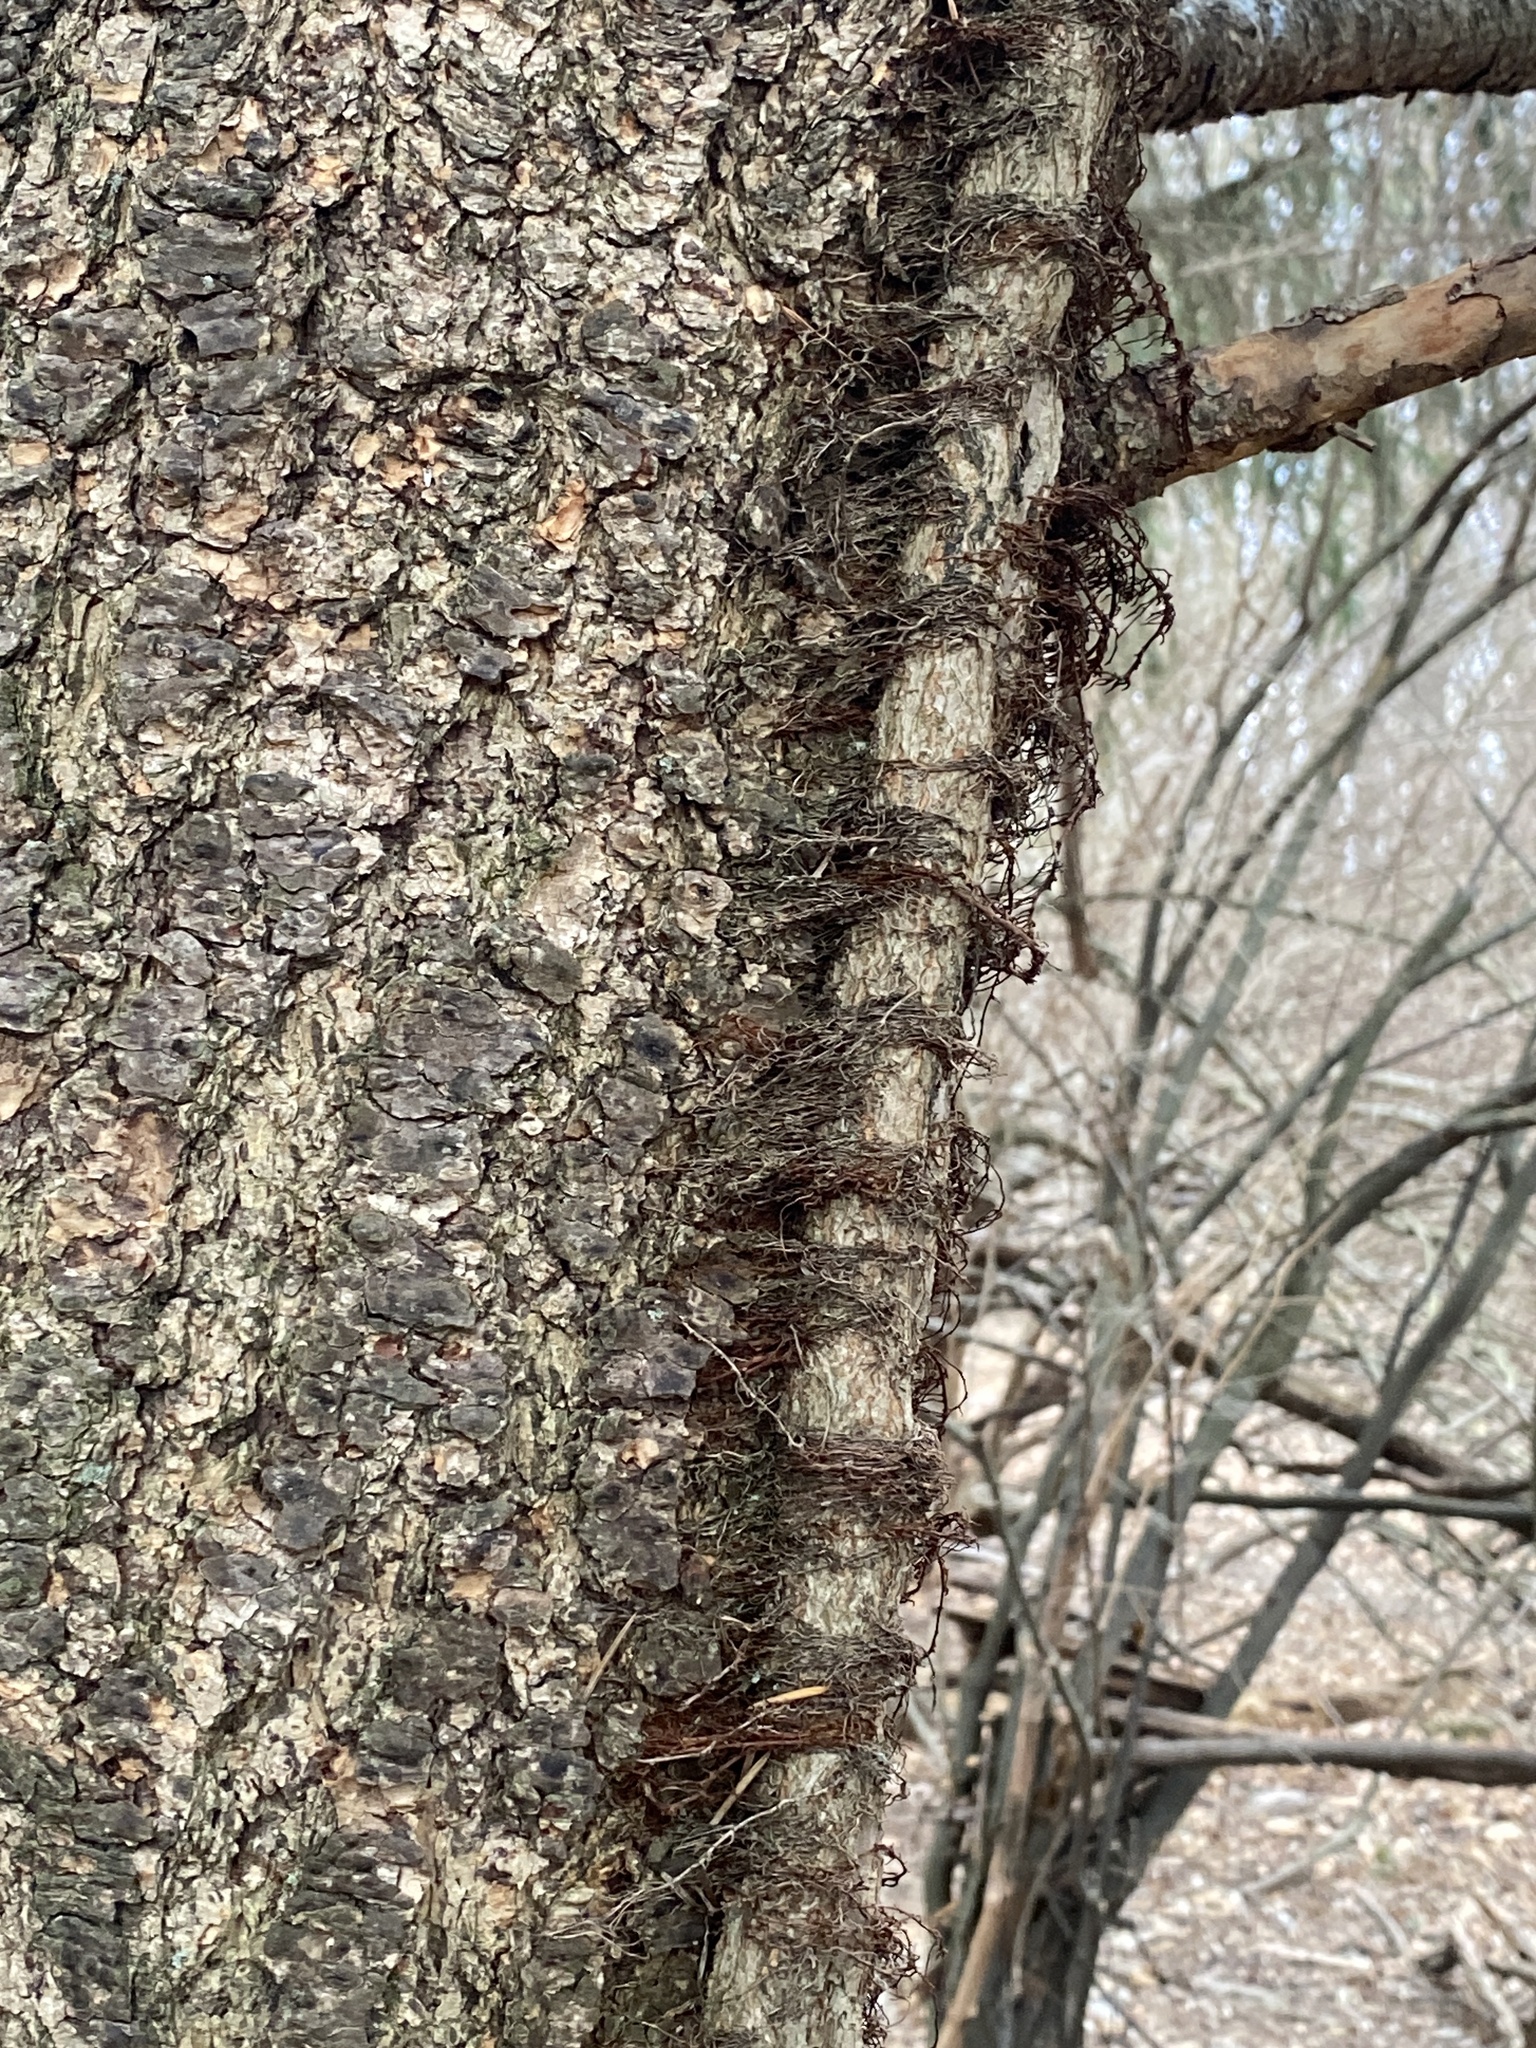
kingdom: Plantae
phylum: Tracheophyta
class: Magnoliopsida
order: Sapindales
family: Anacardiaceae
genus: Toxicodendron
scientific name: Toxicodendron radicans
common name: Poison ivy
